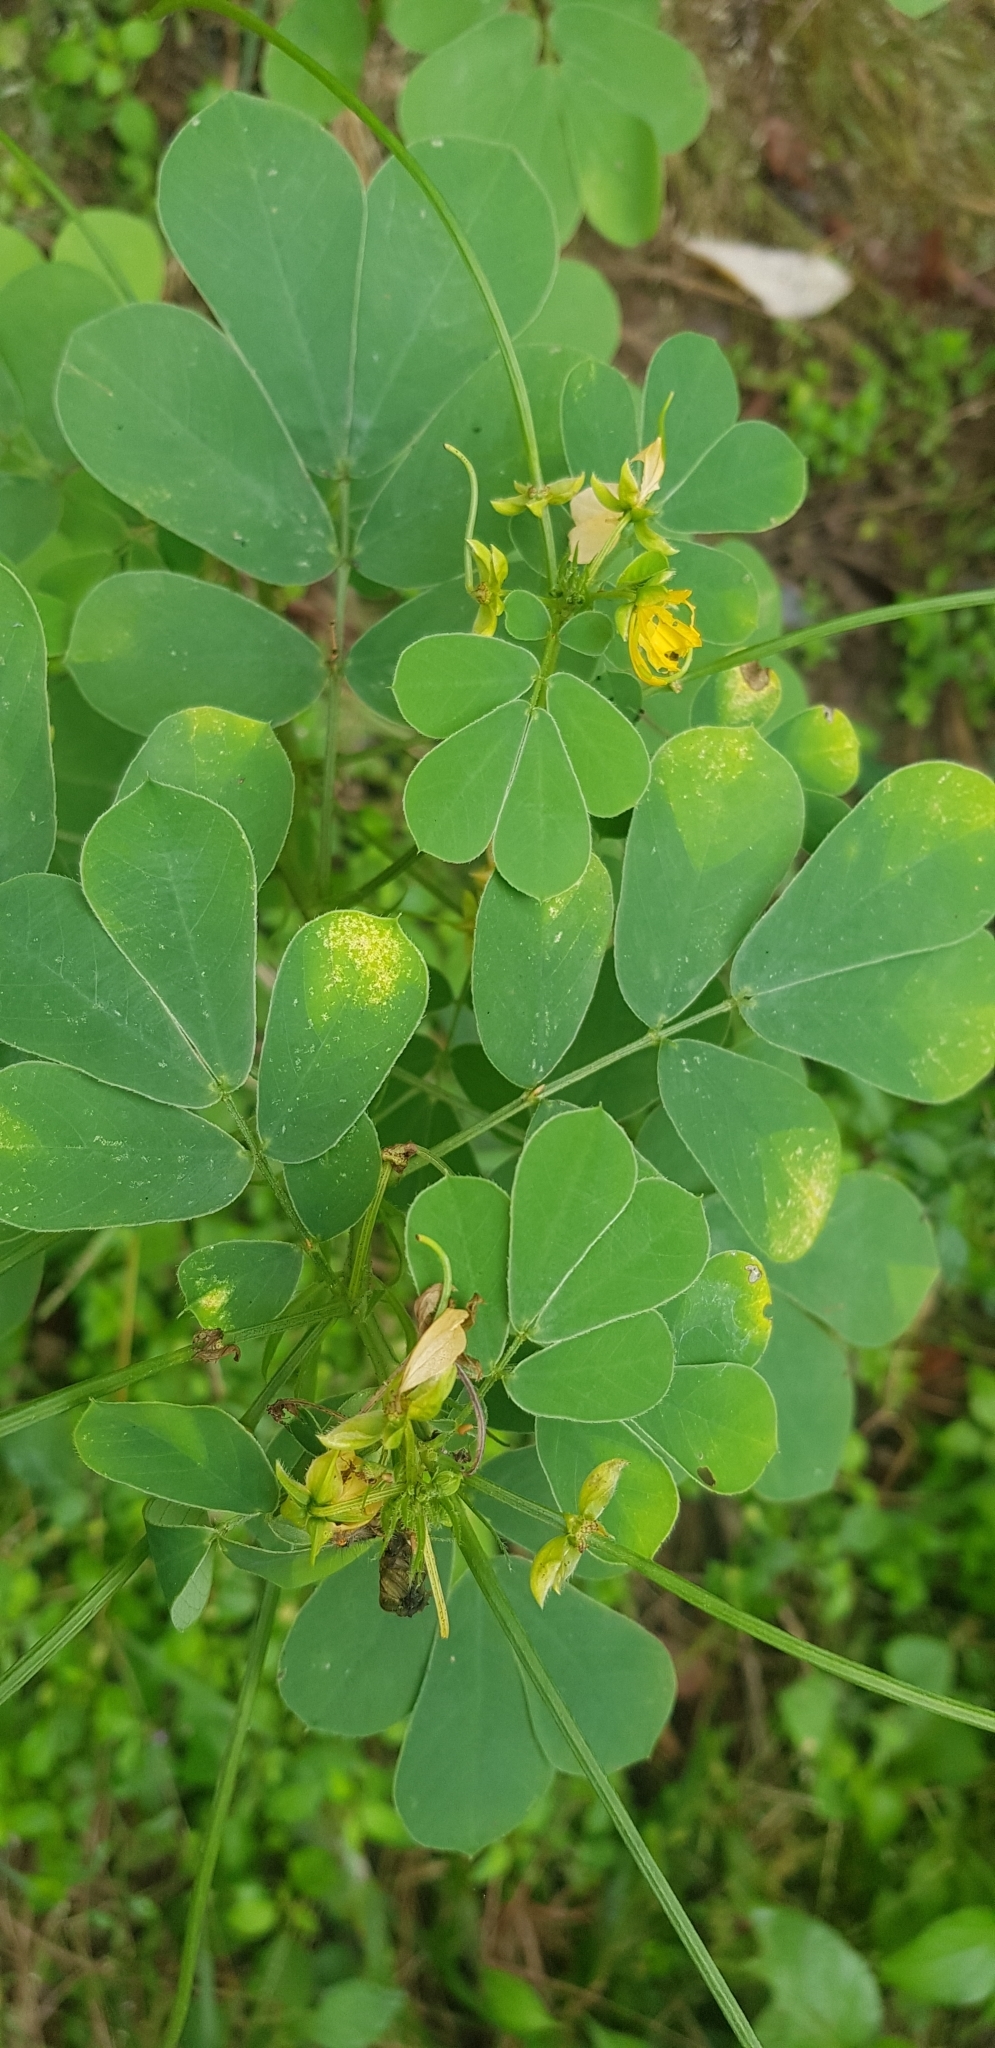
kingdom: Plantae
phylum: Tracheophyta
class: Magnoliopsida
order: Fabales
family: Fabaceae
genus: Senna
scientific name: Senna obtusifolia
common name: Java-bean
